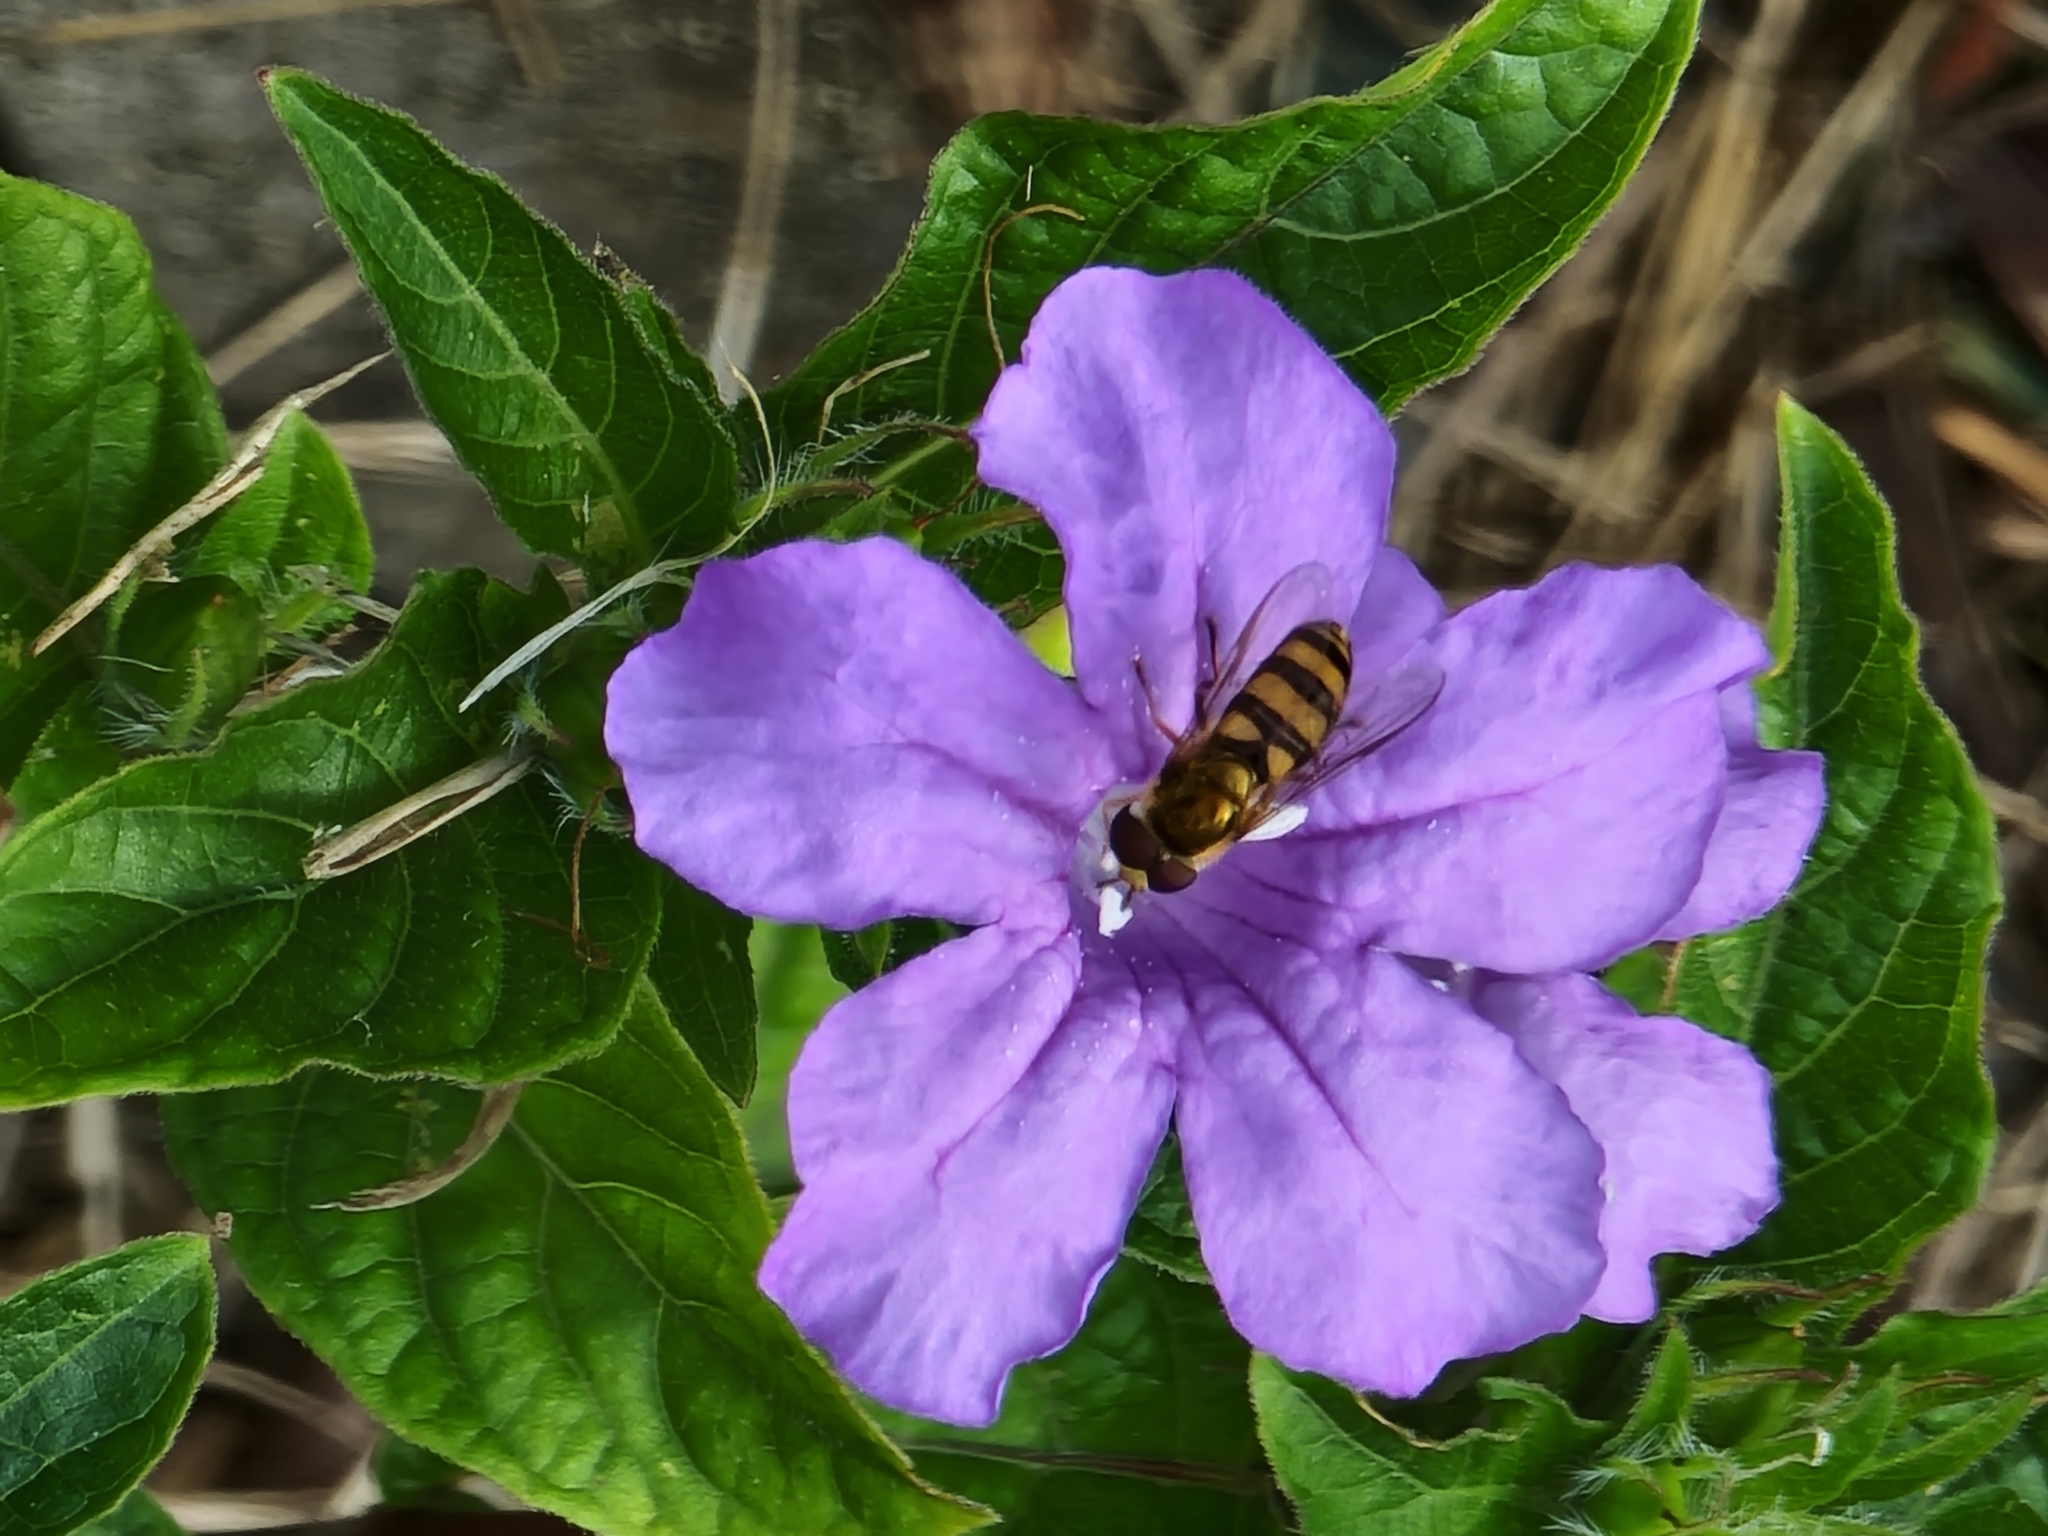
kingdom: Animalia
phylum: Arthropoda
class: Insecta
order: Diptera
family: Syrphidae
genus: Eupeodes
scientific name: Eupeodes
